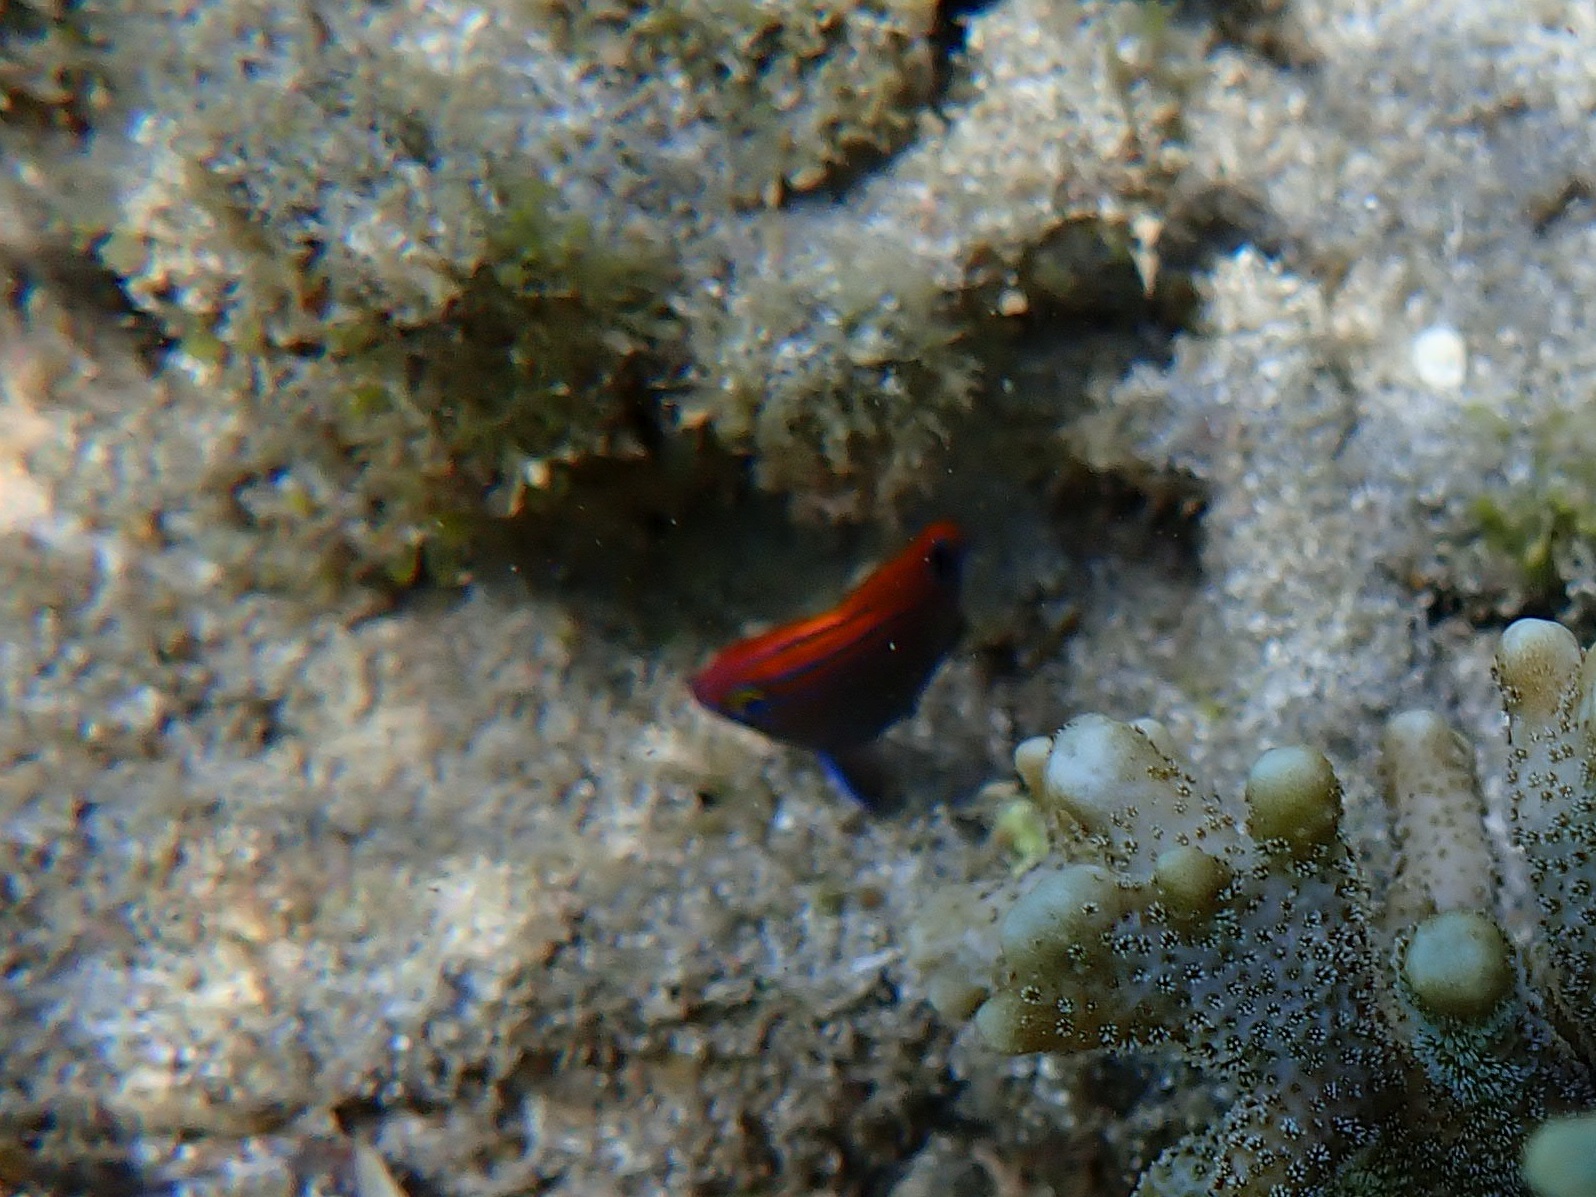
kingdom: Animalia
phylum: Chordata
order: Perciformes
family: Pomacentridae
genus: Pomacentrus
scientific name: Pomacentrus bankanensis
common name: Speckled damsel
